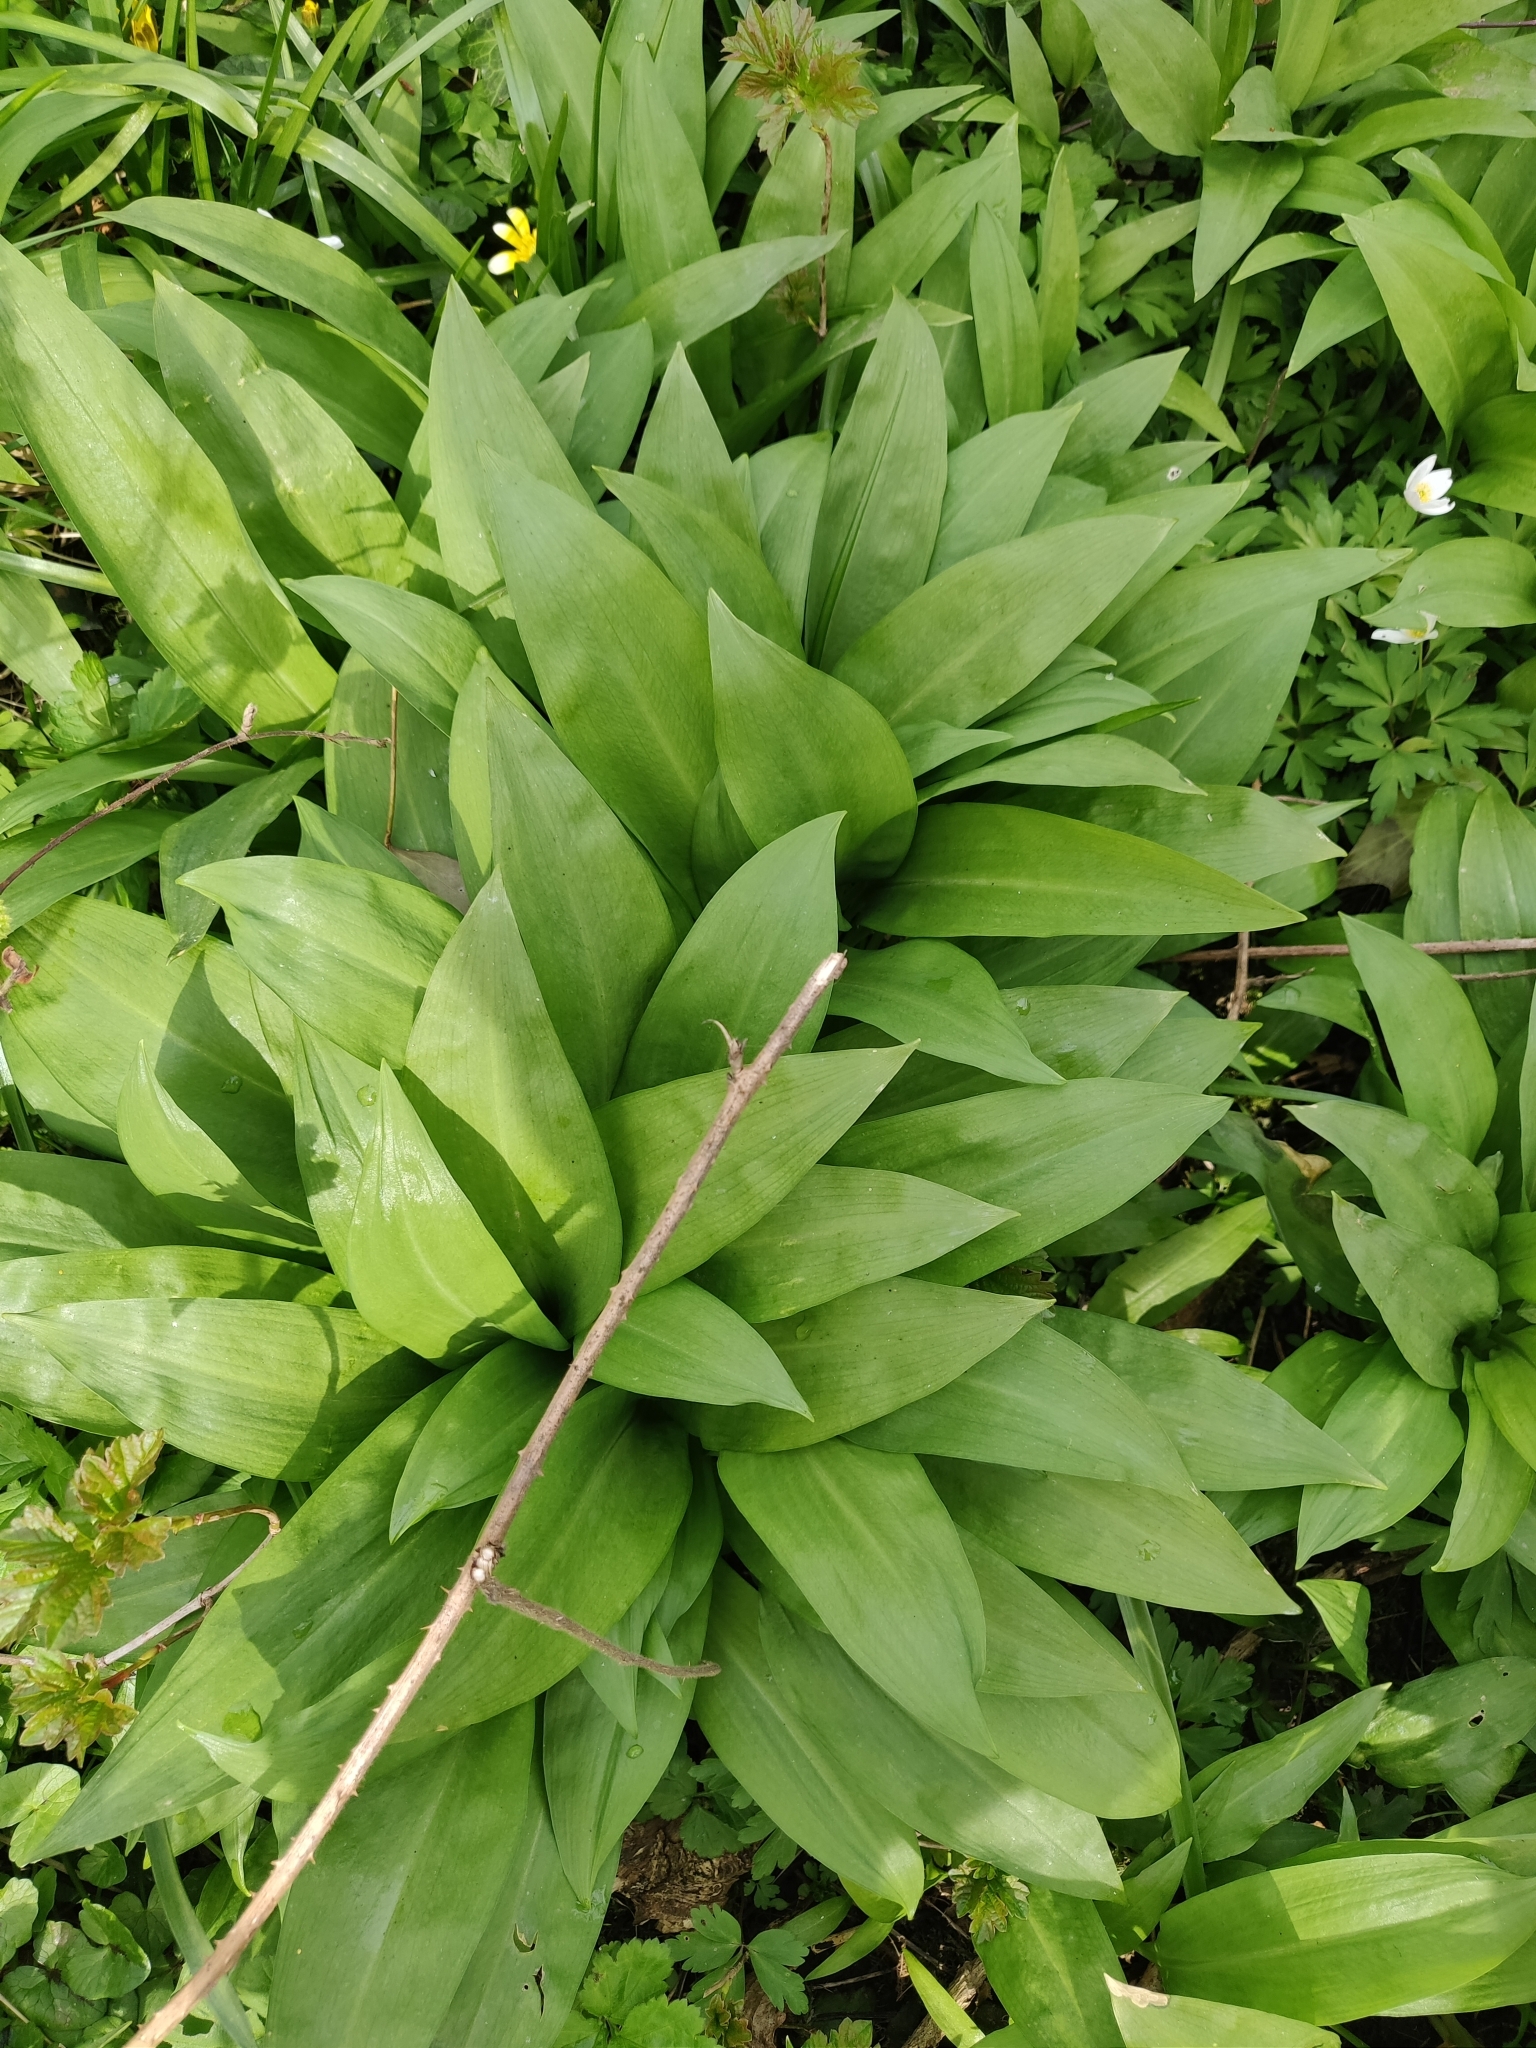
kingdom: Plantae
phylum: Tracheophyta
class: Liliopsida
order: Asparagales
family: Amaryllidaceae
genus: Allium
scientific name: Allium ursinum
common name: Ramsons
